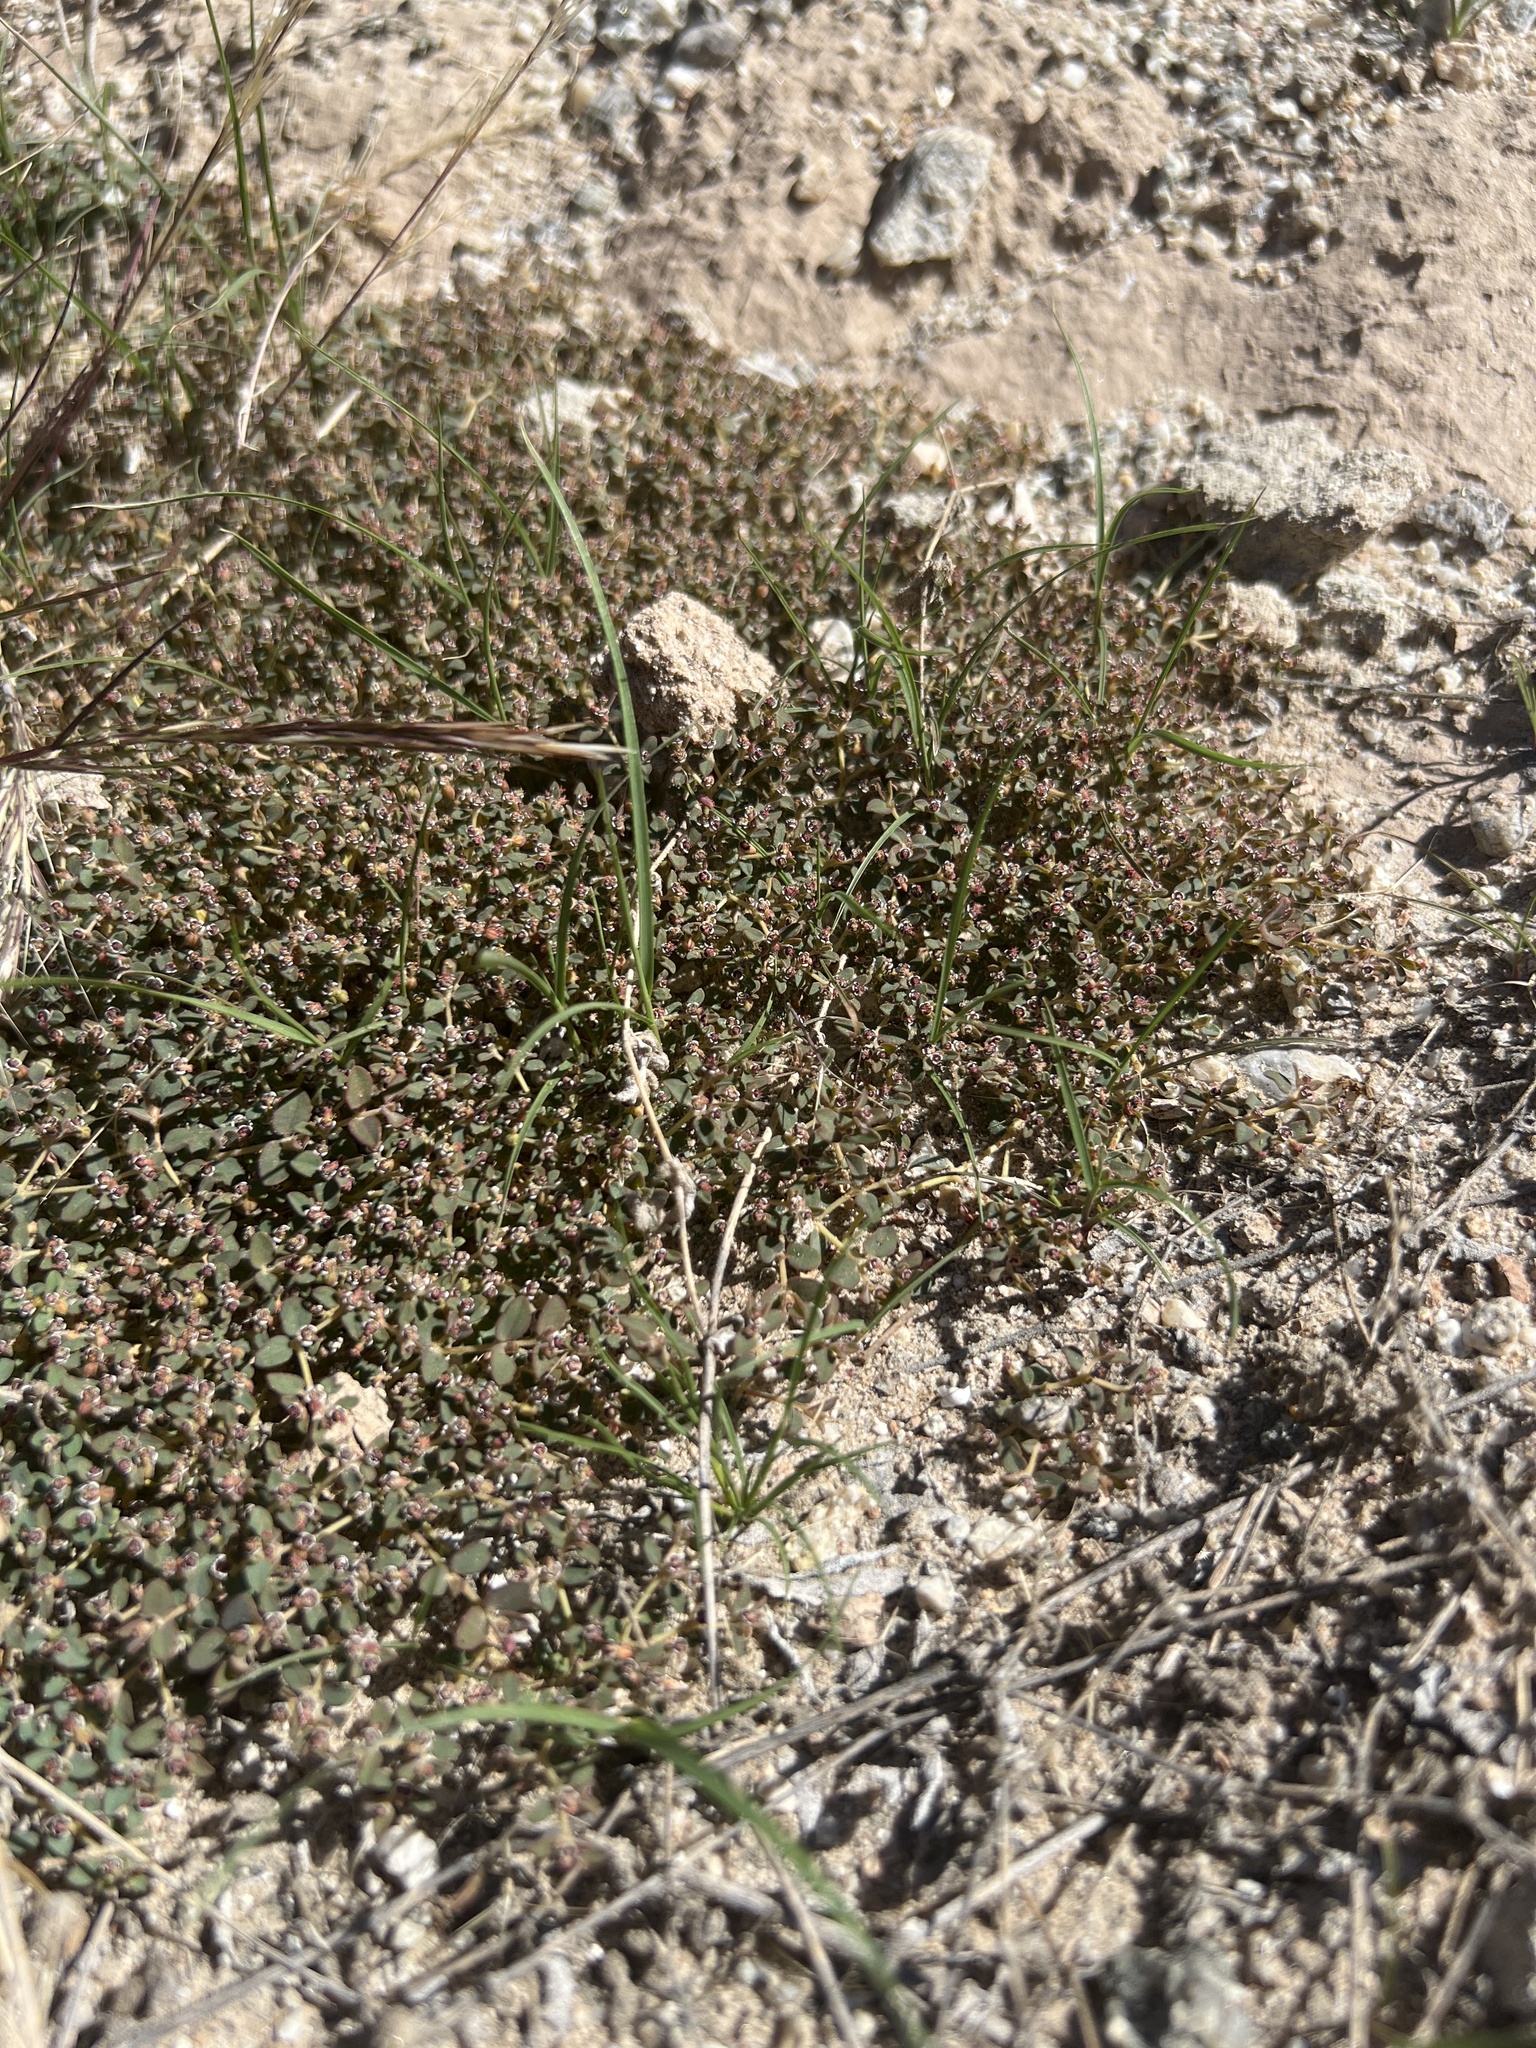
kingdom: Plantae
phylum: Tracheophyta
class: Magnoliopsida
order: Malpighiales
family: Euphorbiaceae
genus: Euphorbia
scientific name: Euphorbia polycarpa
